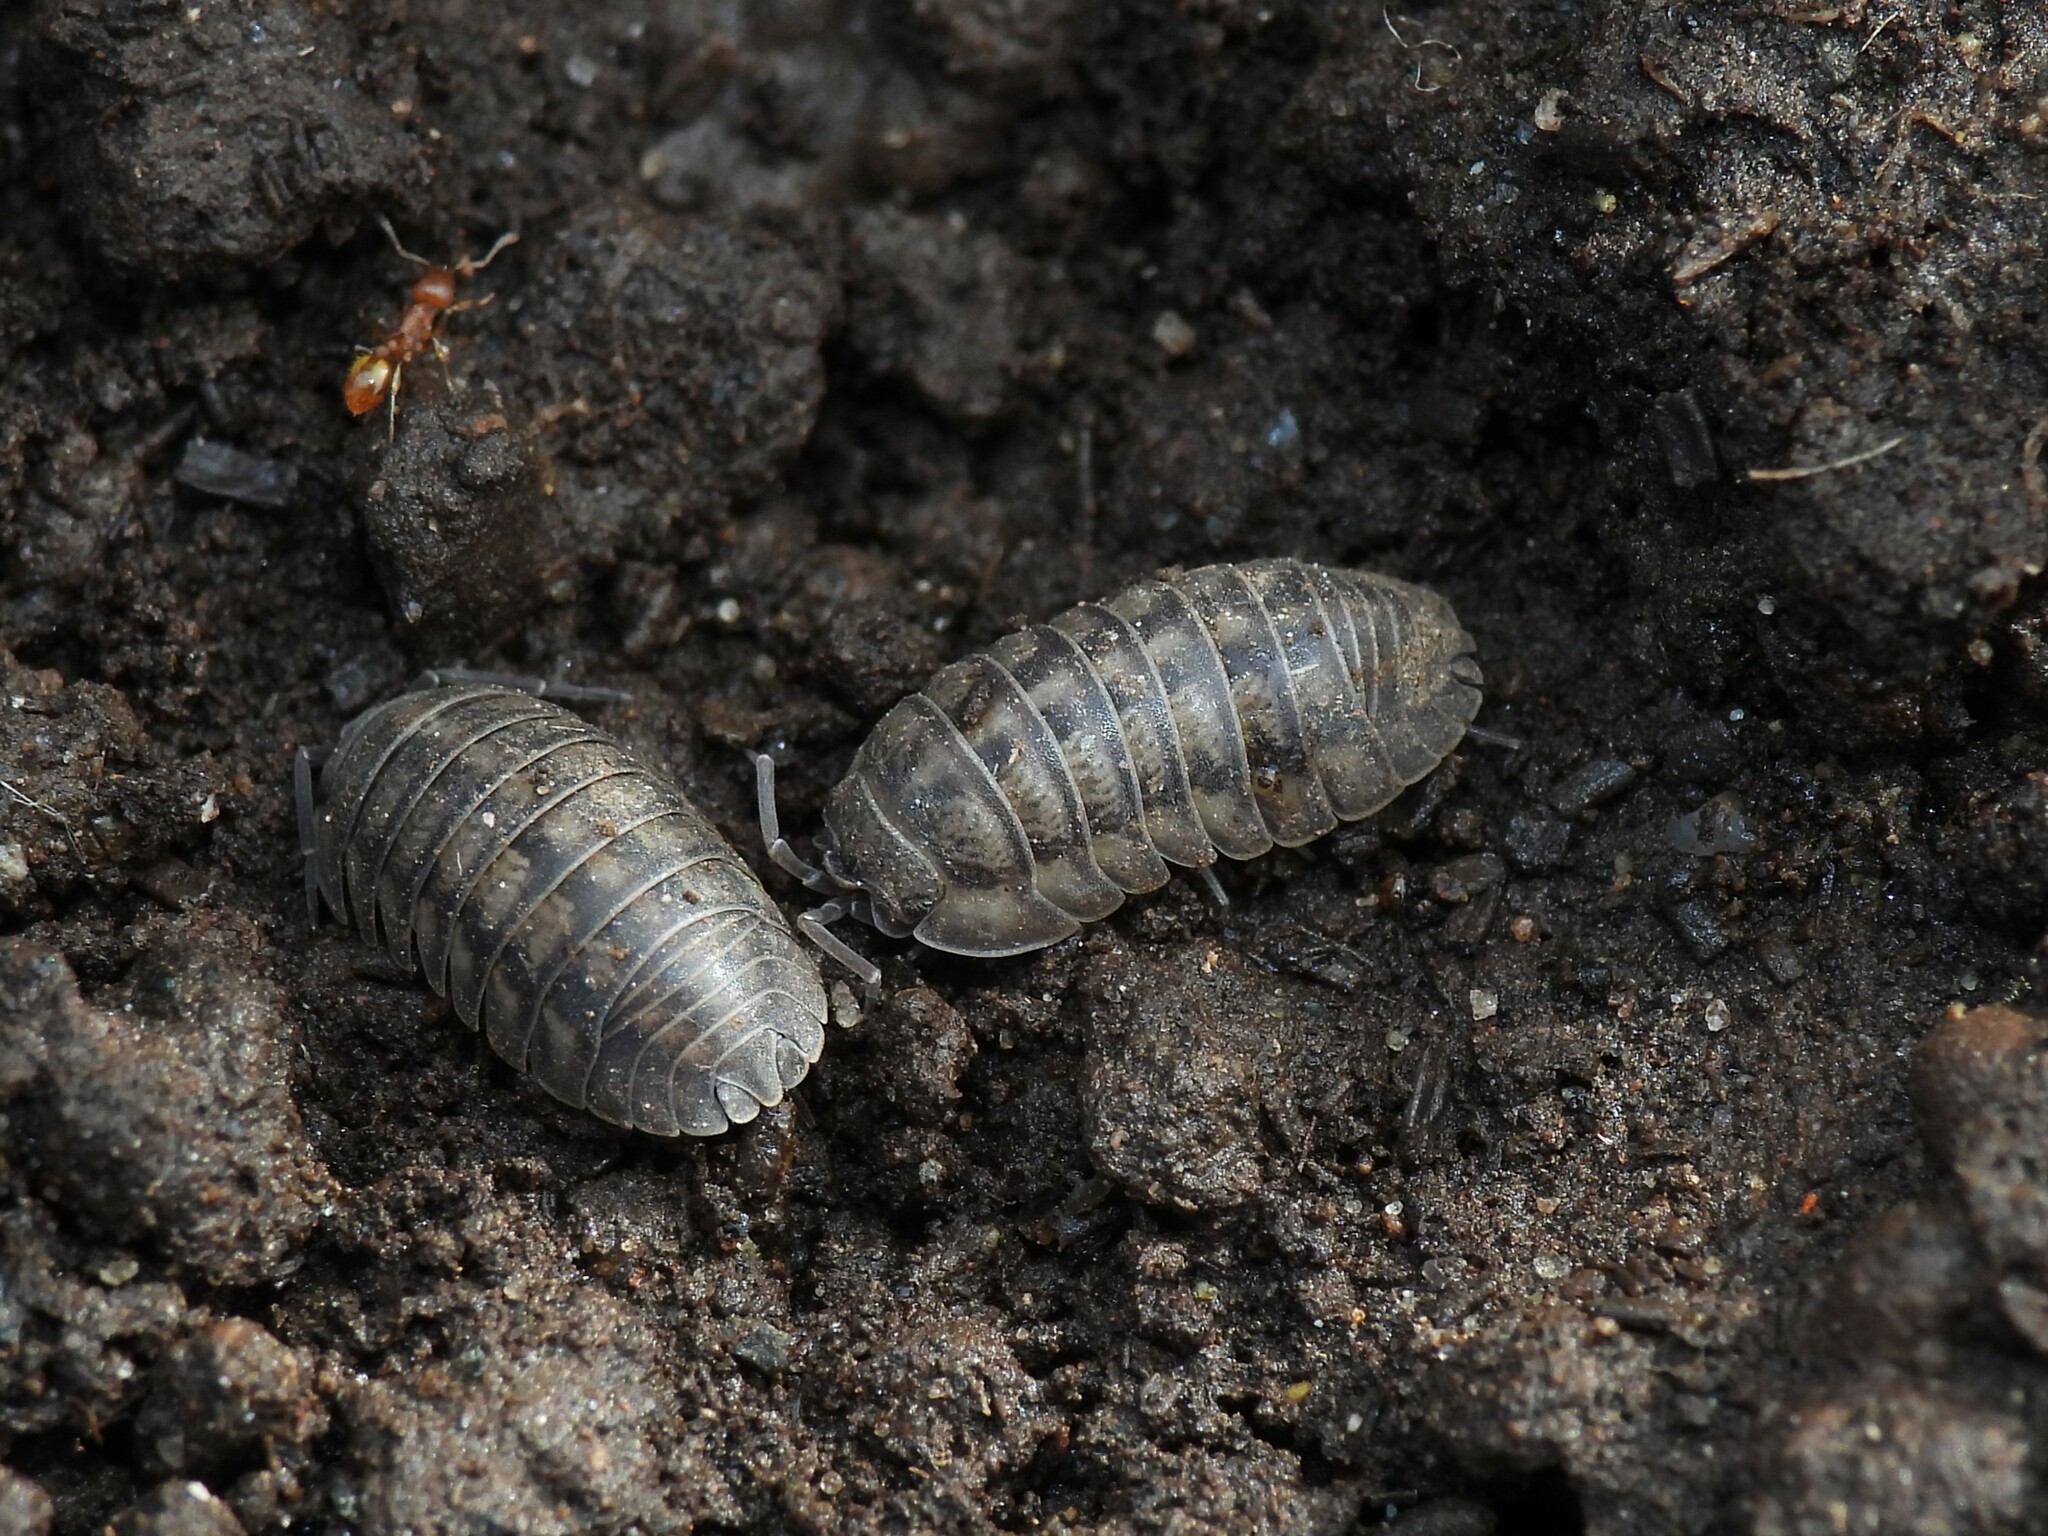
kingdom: Animalia
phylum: Arthropoda
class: Malacostraca
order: Isopoda
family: Armadillidiidae
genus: Armadillidium
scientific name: Armadillidium nasatum
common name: Isopod
